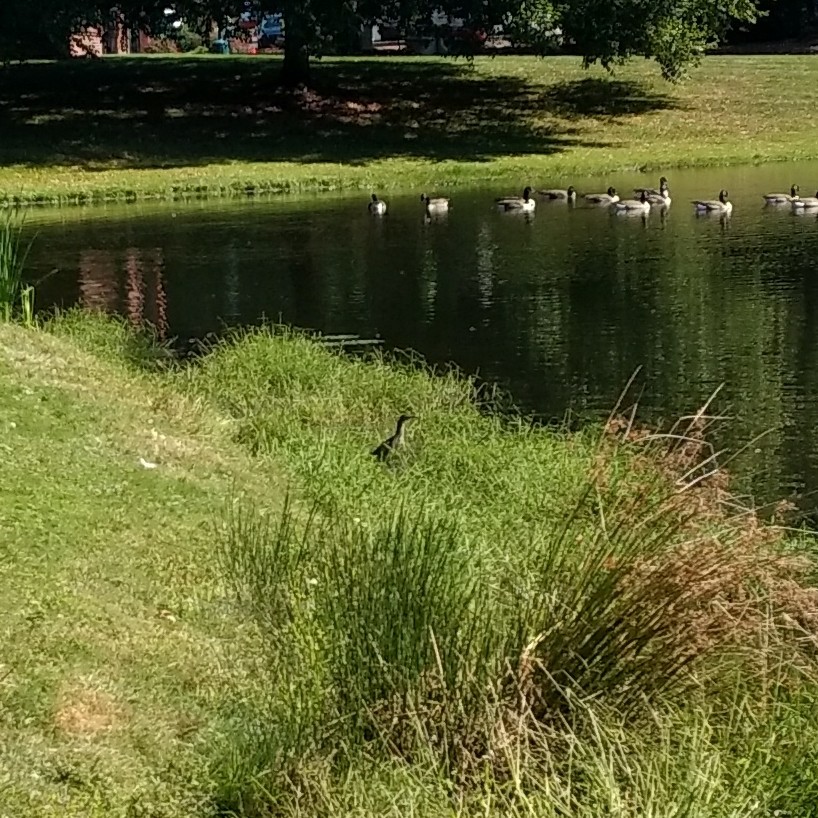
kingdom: Animalia
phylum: Chordata
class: Aves
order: Pelecaniformes
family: Ardeidae
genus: Butorides
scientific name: Butorides virescens
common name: Green heron
